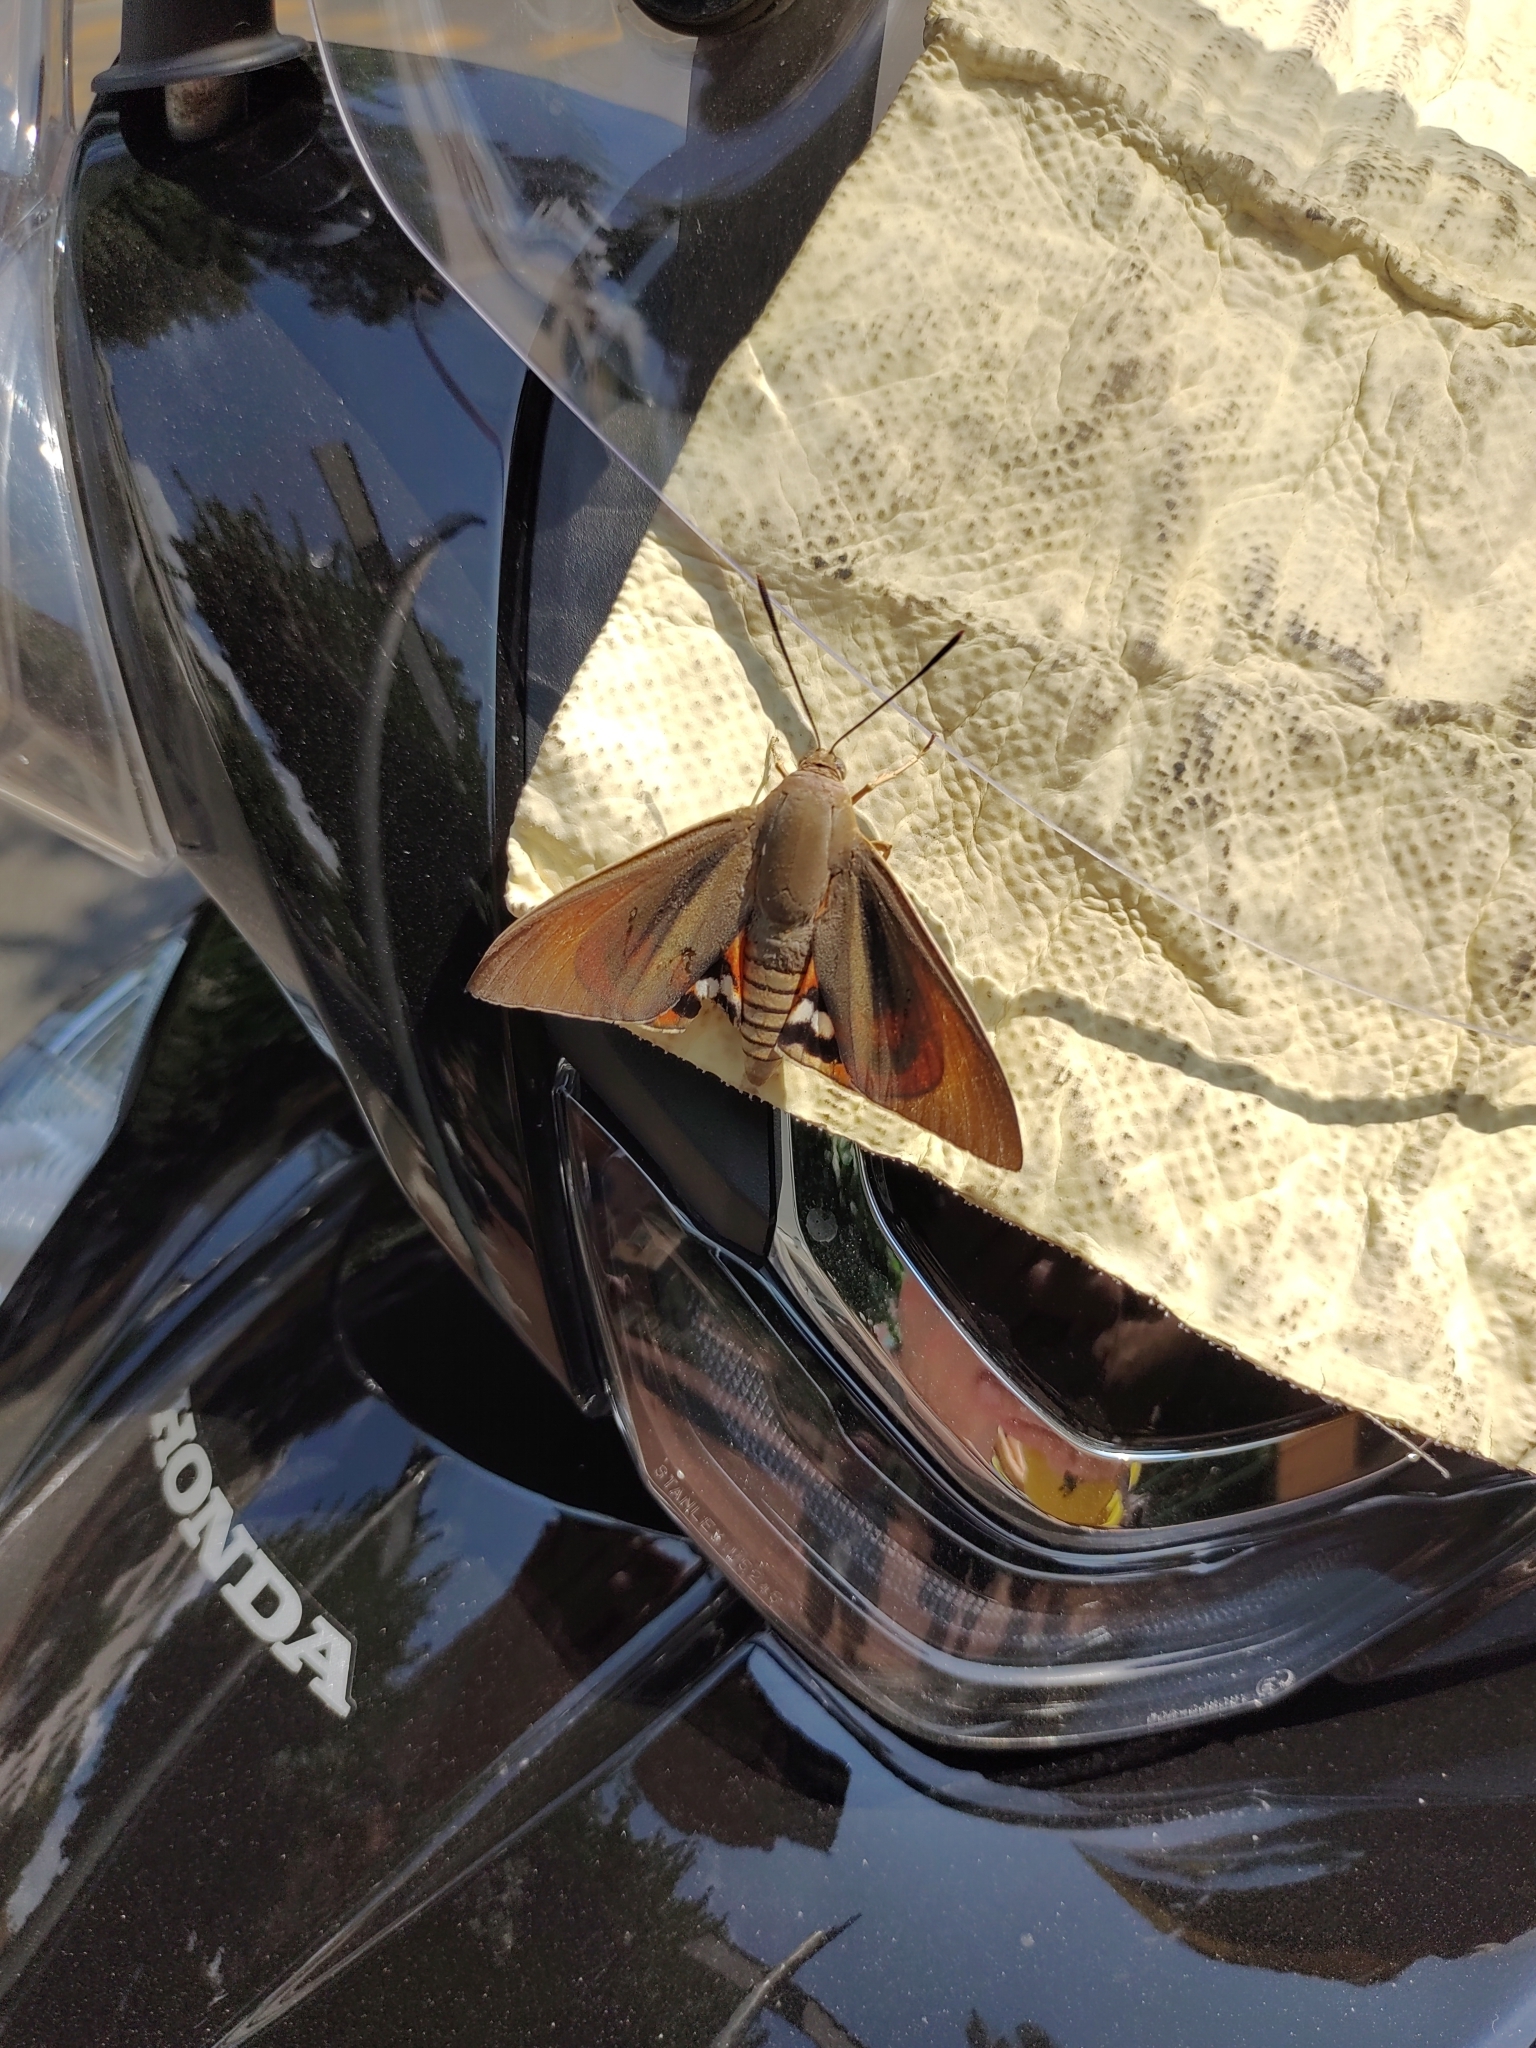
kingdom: Animalia
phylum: Arthropoda
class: Insecta
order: Lepidoptera
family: Castniidae
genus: Paysandisia
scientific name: Paysandisia archon
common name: Palm moth
